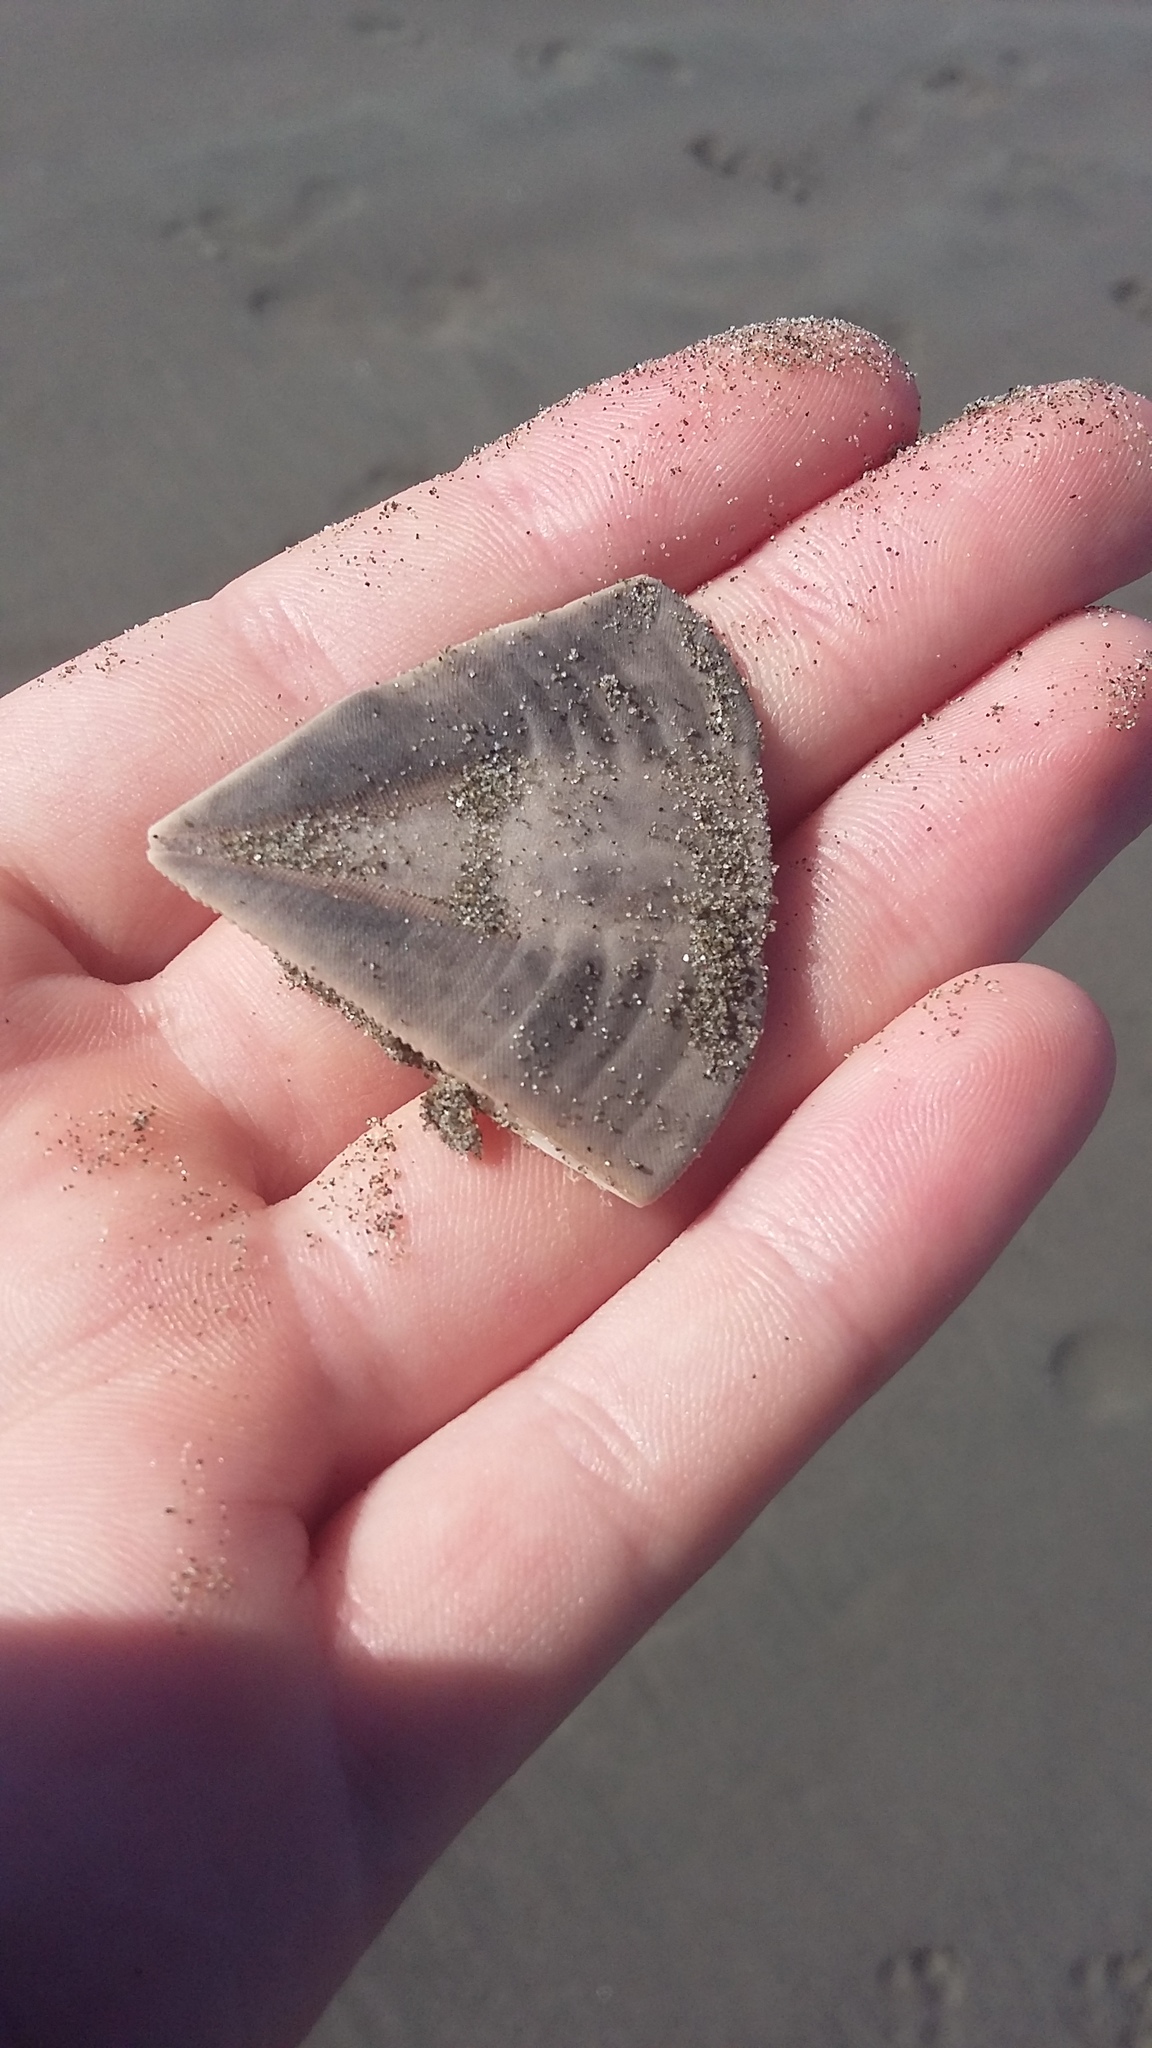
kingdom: Animalia
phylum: Echinodermata
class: Echinoidea
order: Clypeasteroida
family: Clypeasteridae
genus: Fellaster
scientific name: Fellaster zelandiae
